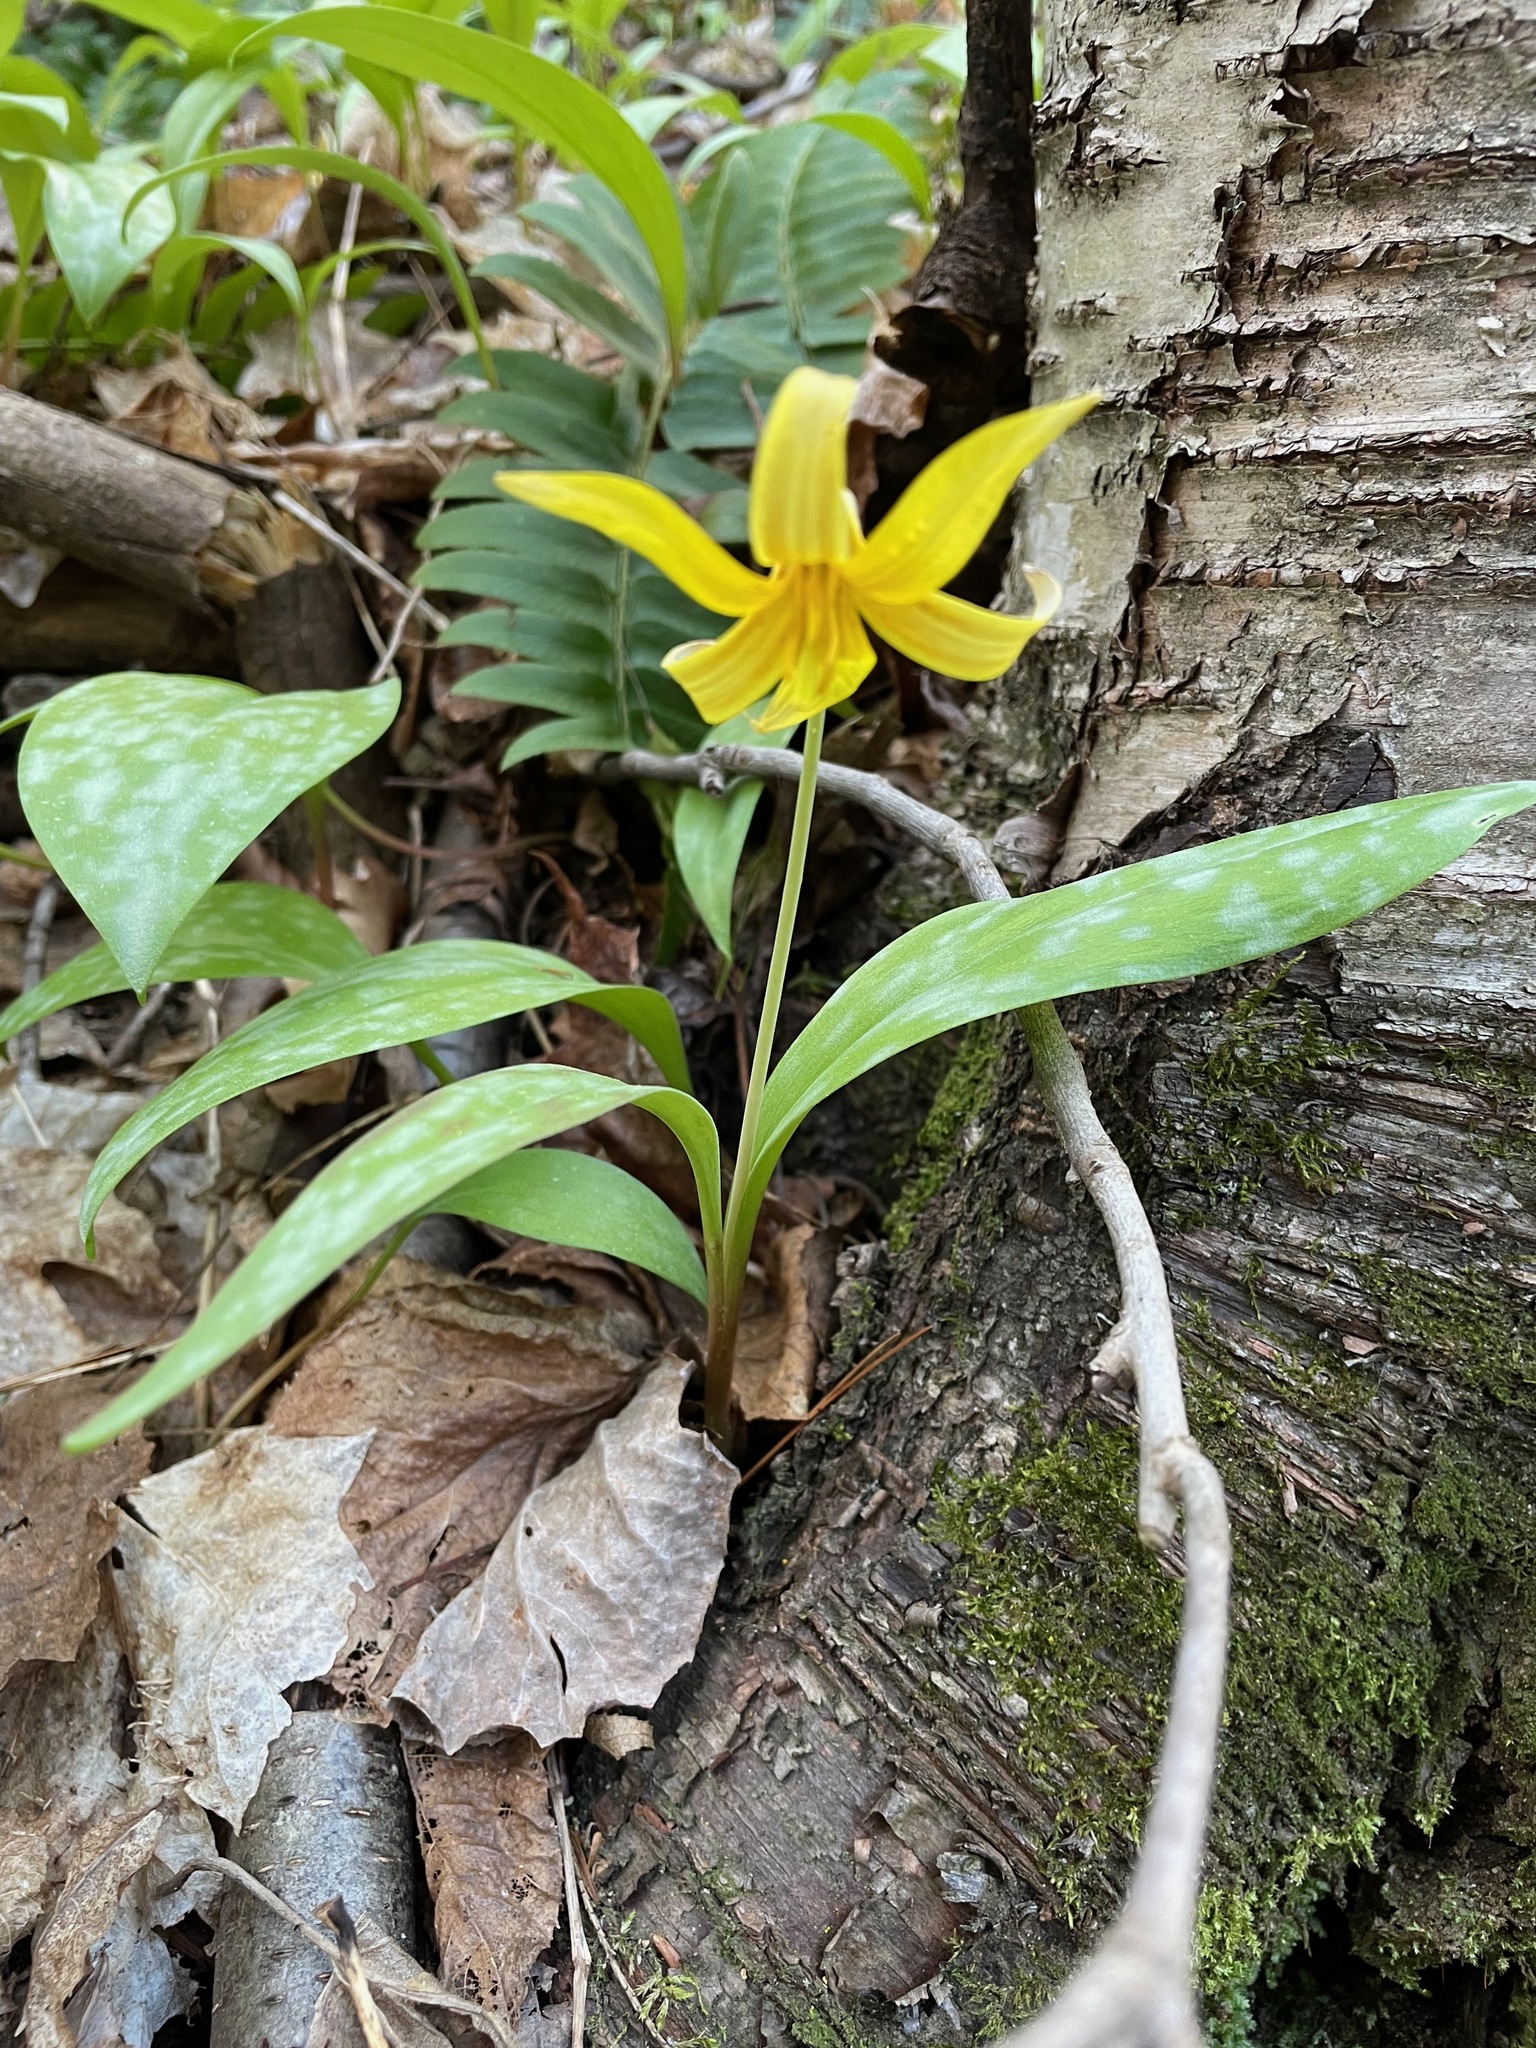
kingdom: Plantae
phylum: Tracheophyta
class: Liliopsida
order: Liliales
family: Liliaceae
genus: Erythronium
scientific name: Erythronium americanum
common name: Yellow adder's-tongue
